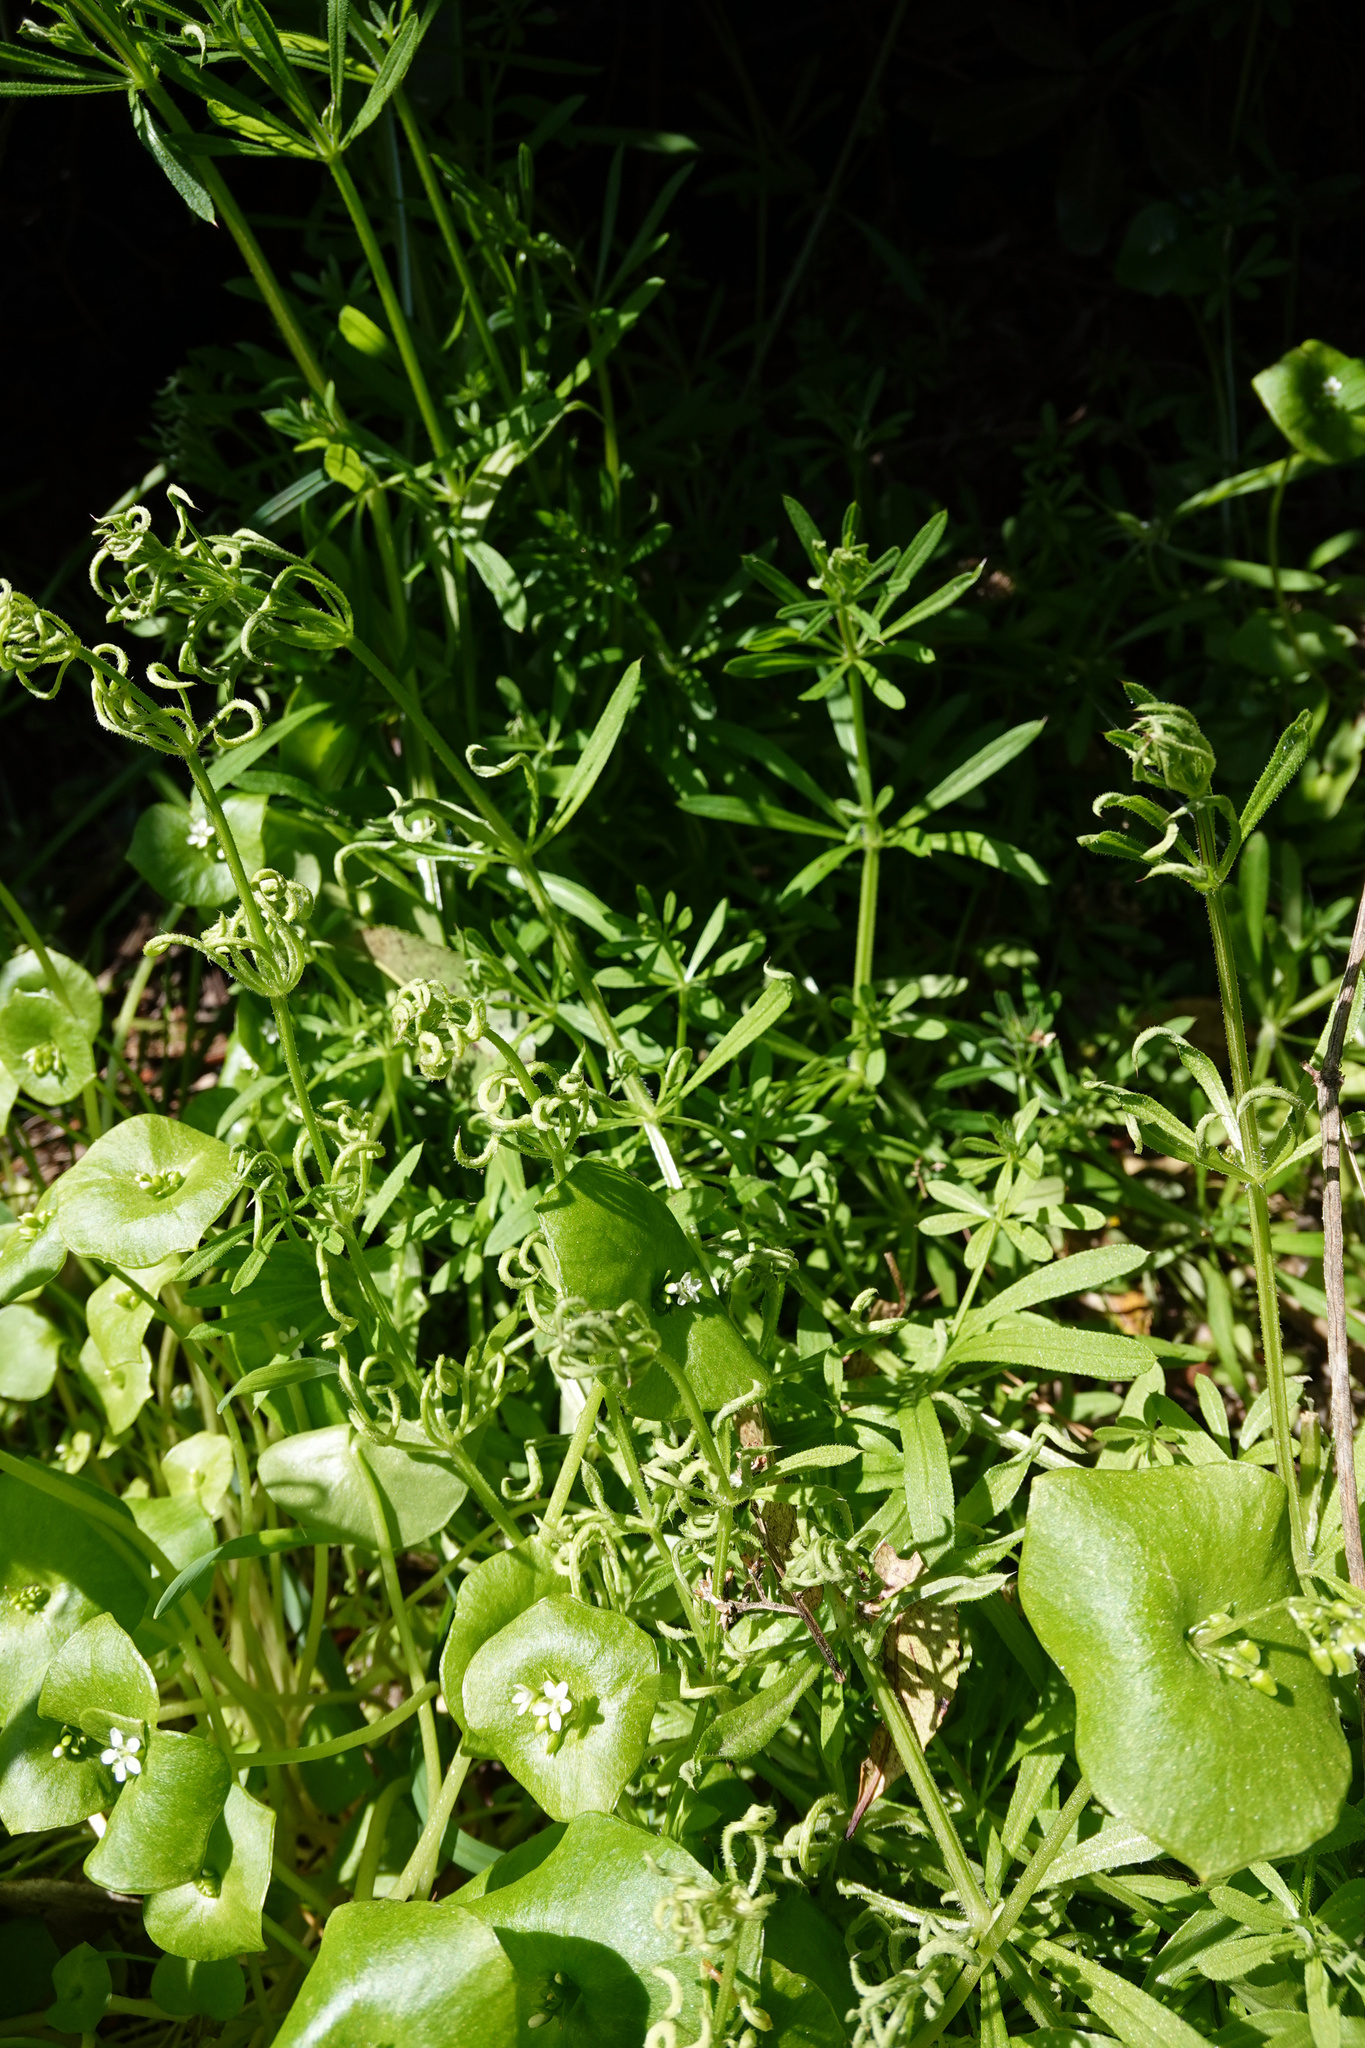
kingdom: Animalia
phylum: Arthropoda
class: Arachnida
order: Trombidiformes
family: Eriophyidae
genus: Cecidophyes
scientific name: Cecidophyes rouhollahi
